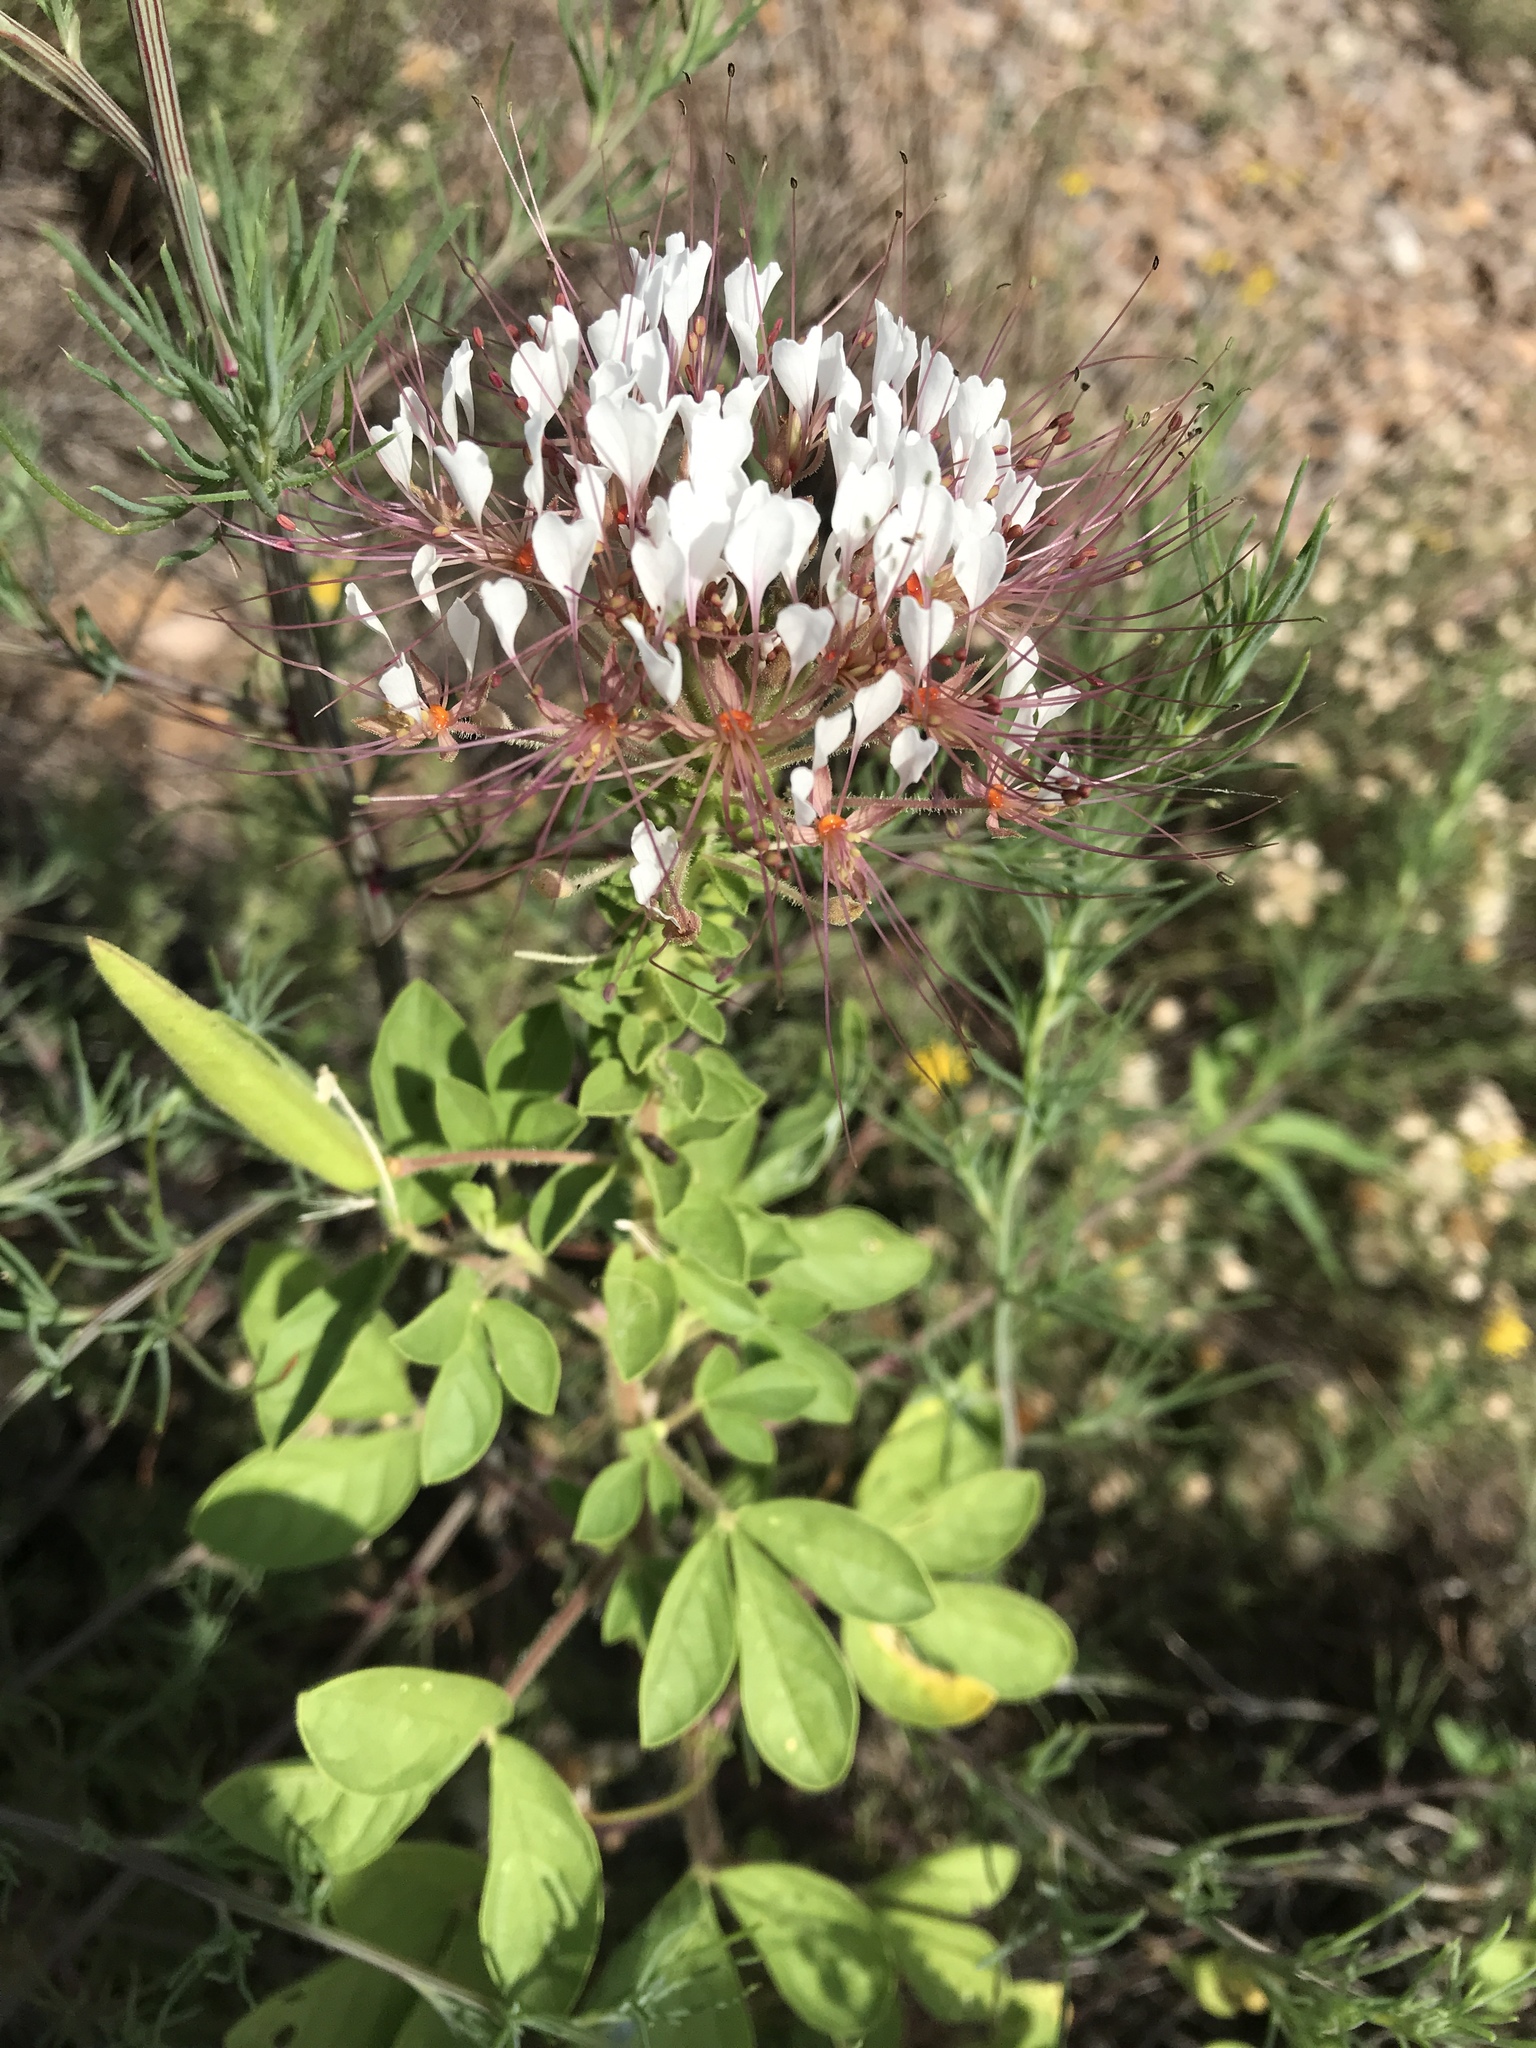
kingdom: Plantae
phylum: Tracheophyta
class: Magnoliopsida
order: Brassicales
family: Cleomaceae
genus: Polanisia
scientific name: Polanisia dodecandra
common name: Clammyweed
